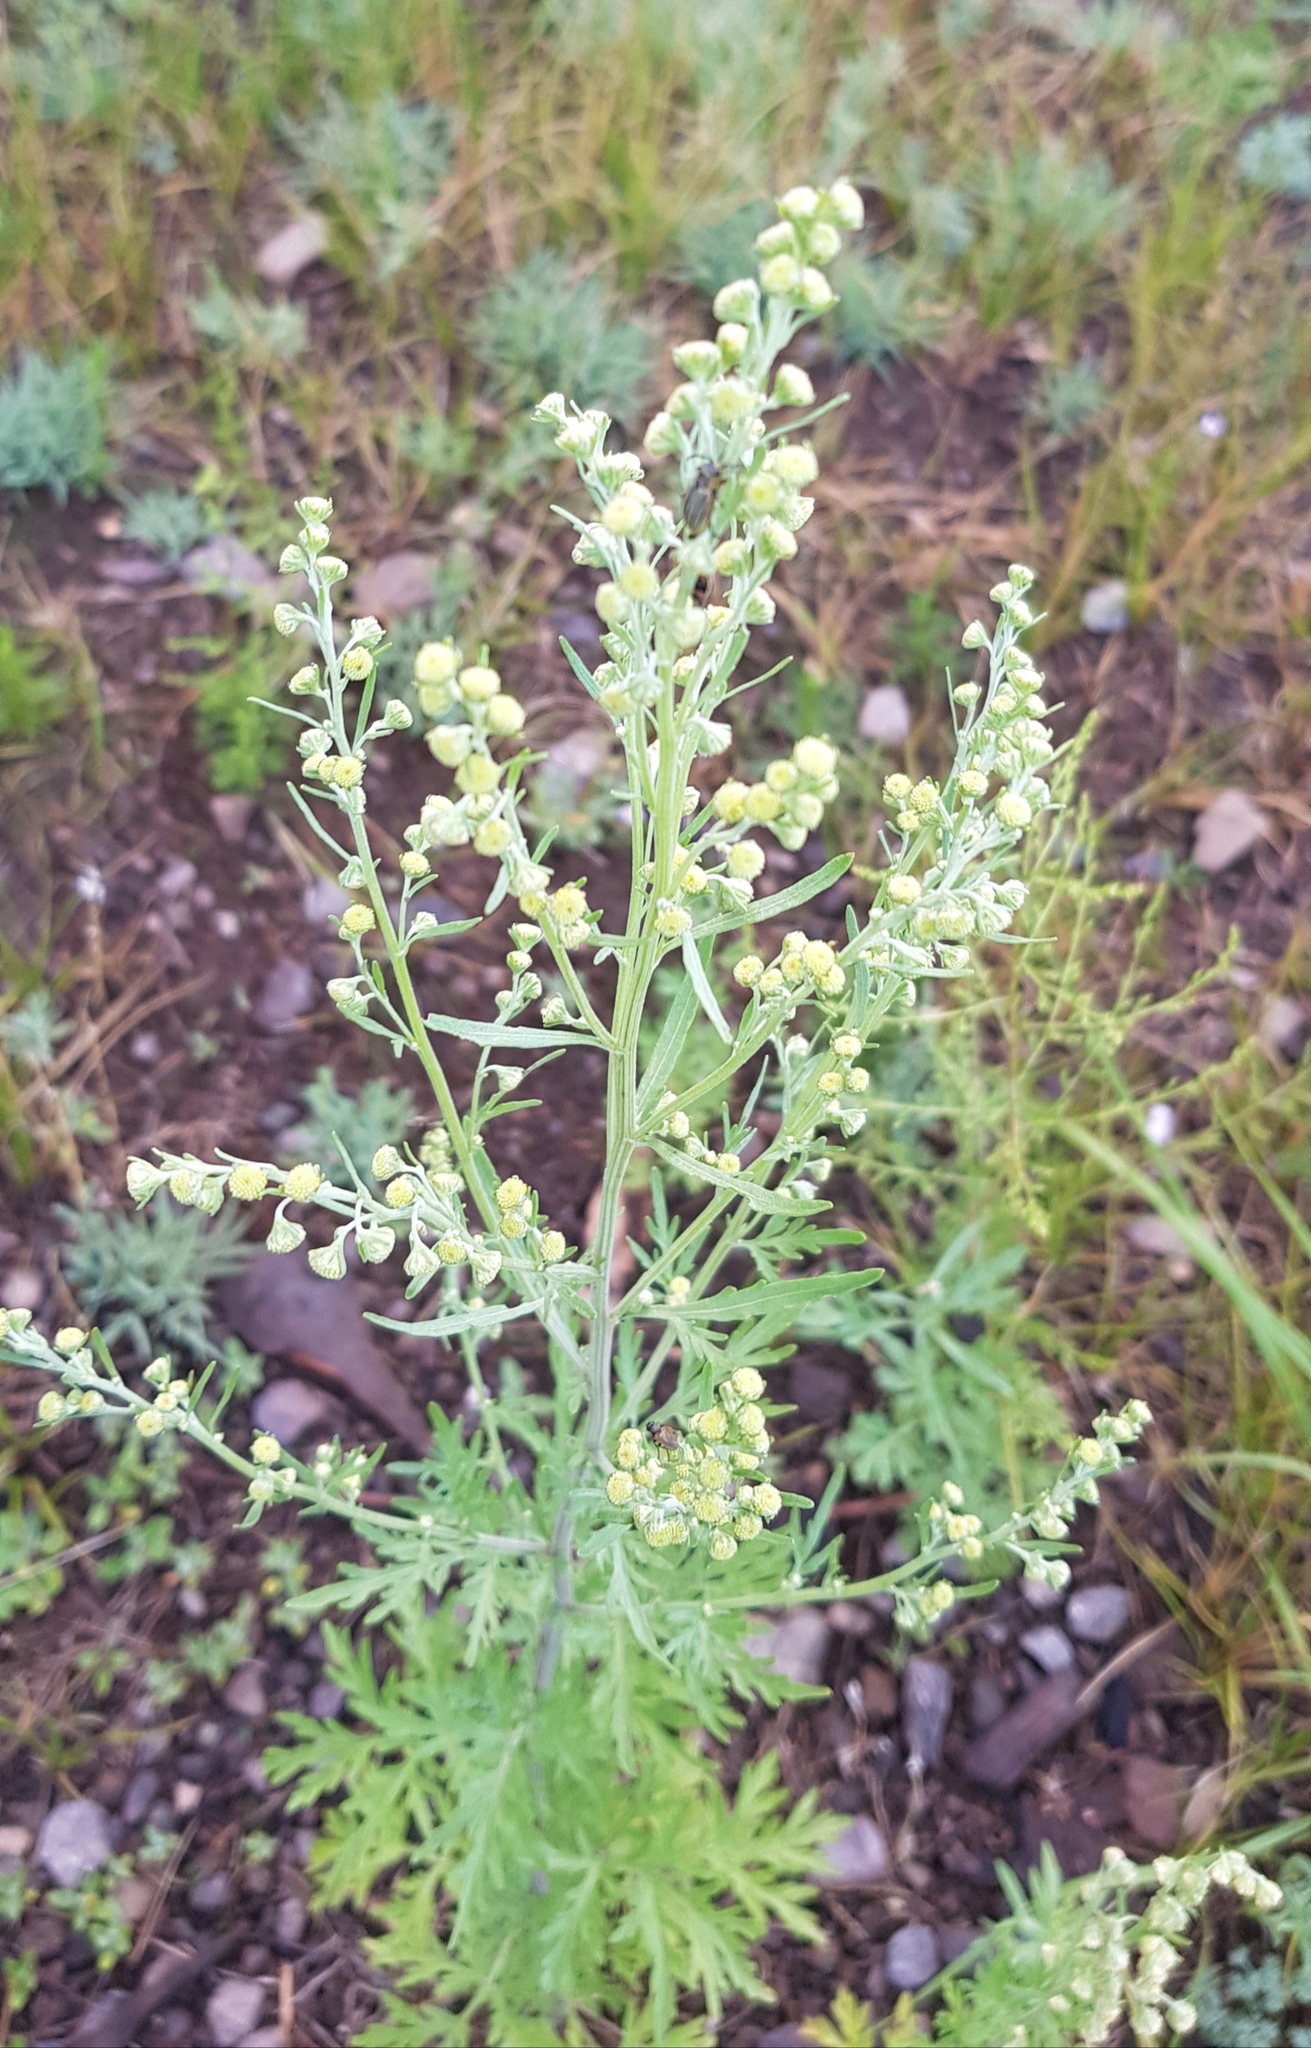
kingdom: Plantae
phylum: Tracheophyta
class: Magnoliopsida
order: Asterales
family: Asteraceae
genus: Artemisia
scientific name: Artemisia annua
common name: Sweet sagewort
